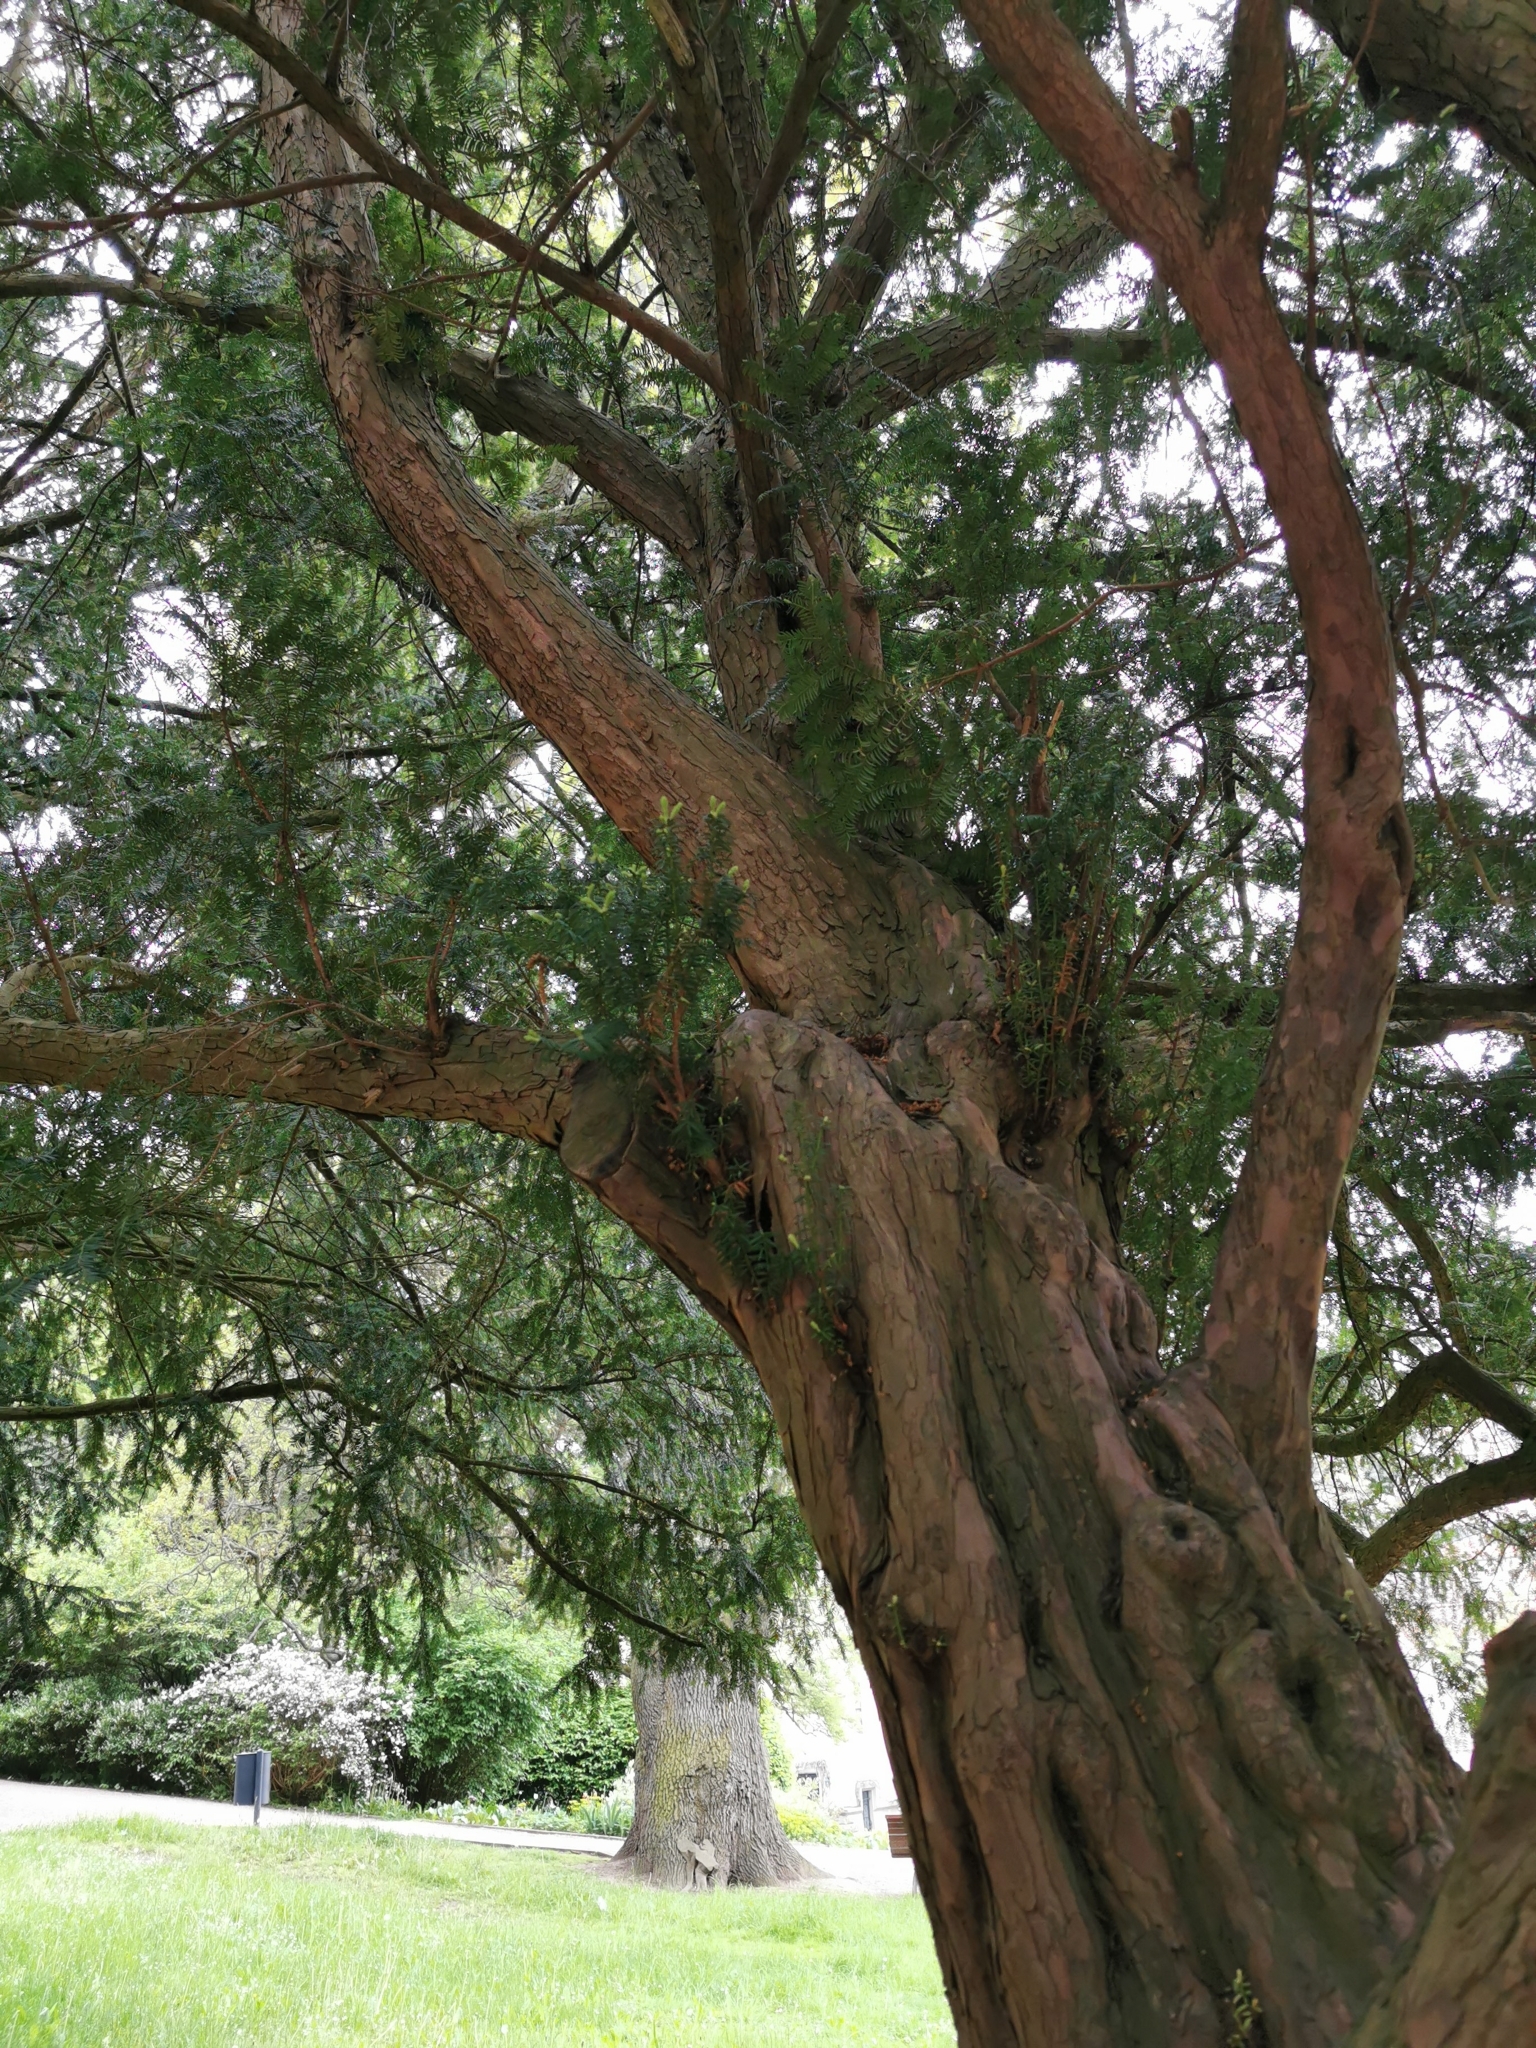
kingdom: Plantae
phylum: Tracheophyta
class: Pinopsida
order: Pinales
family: Taxaceae
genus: Taxus
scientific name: Taxus baccata
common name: Yew
